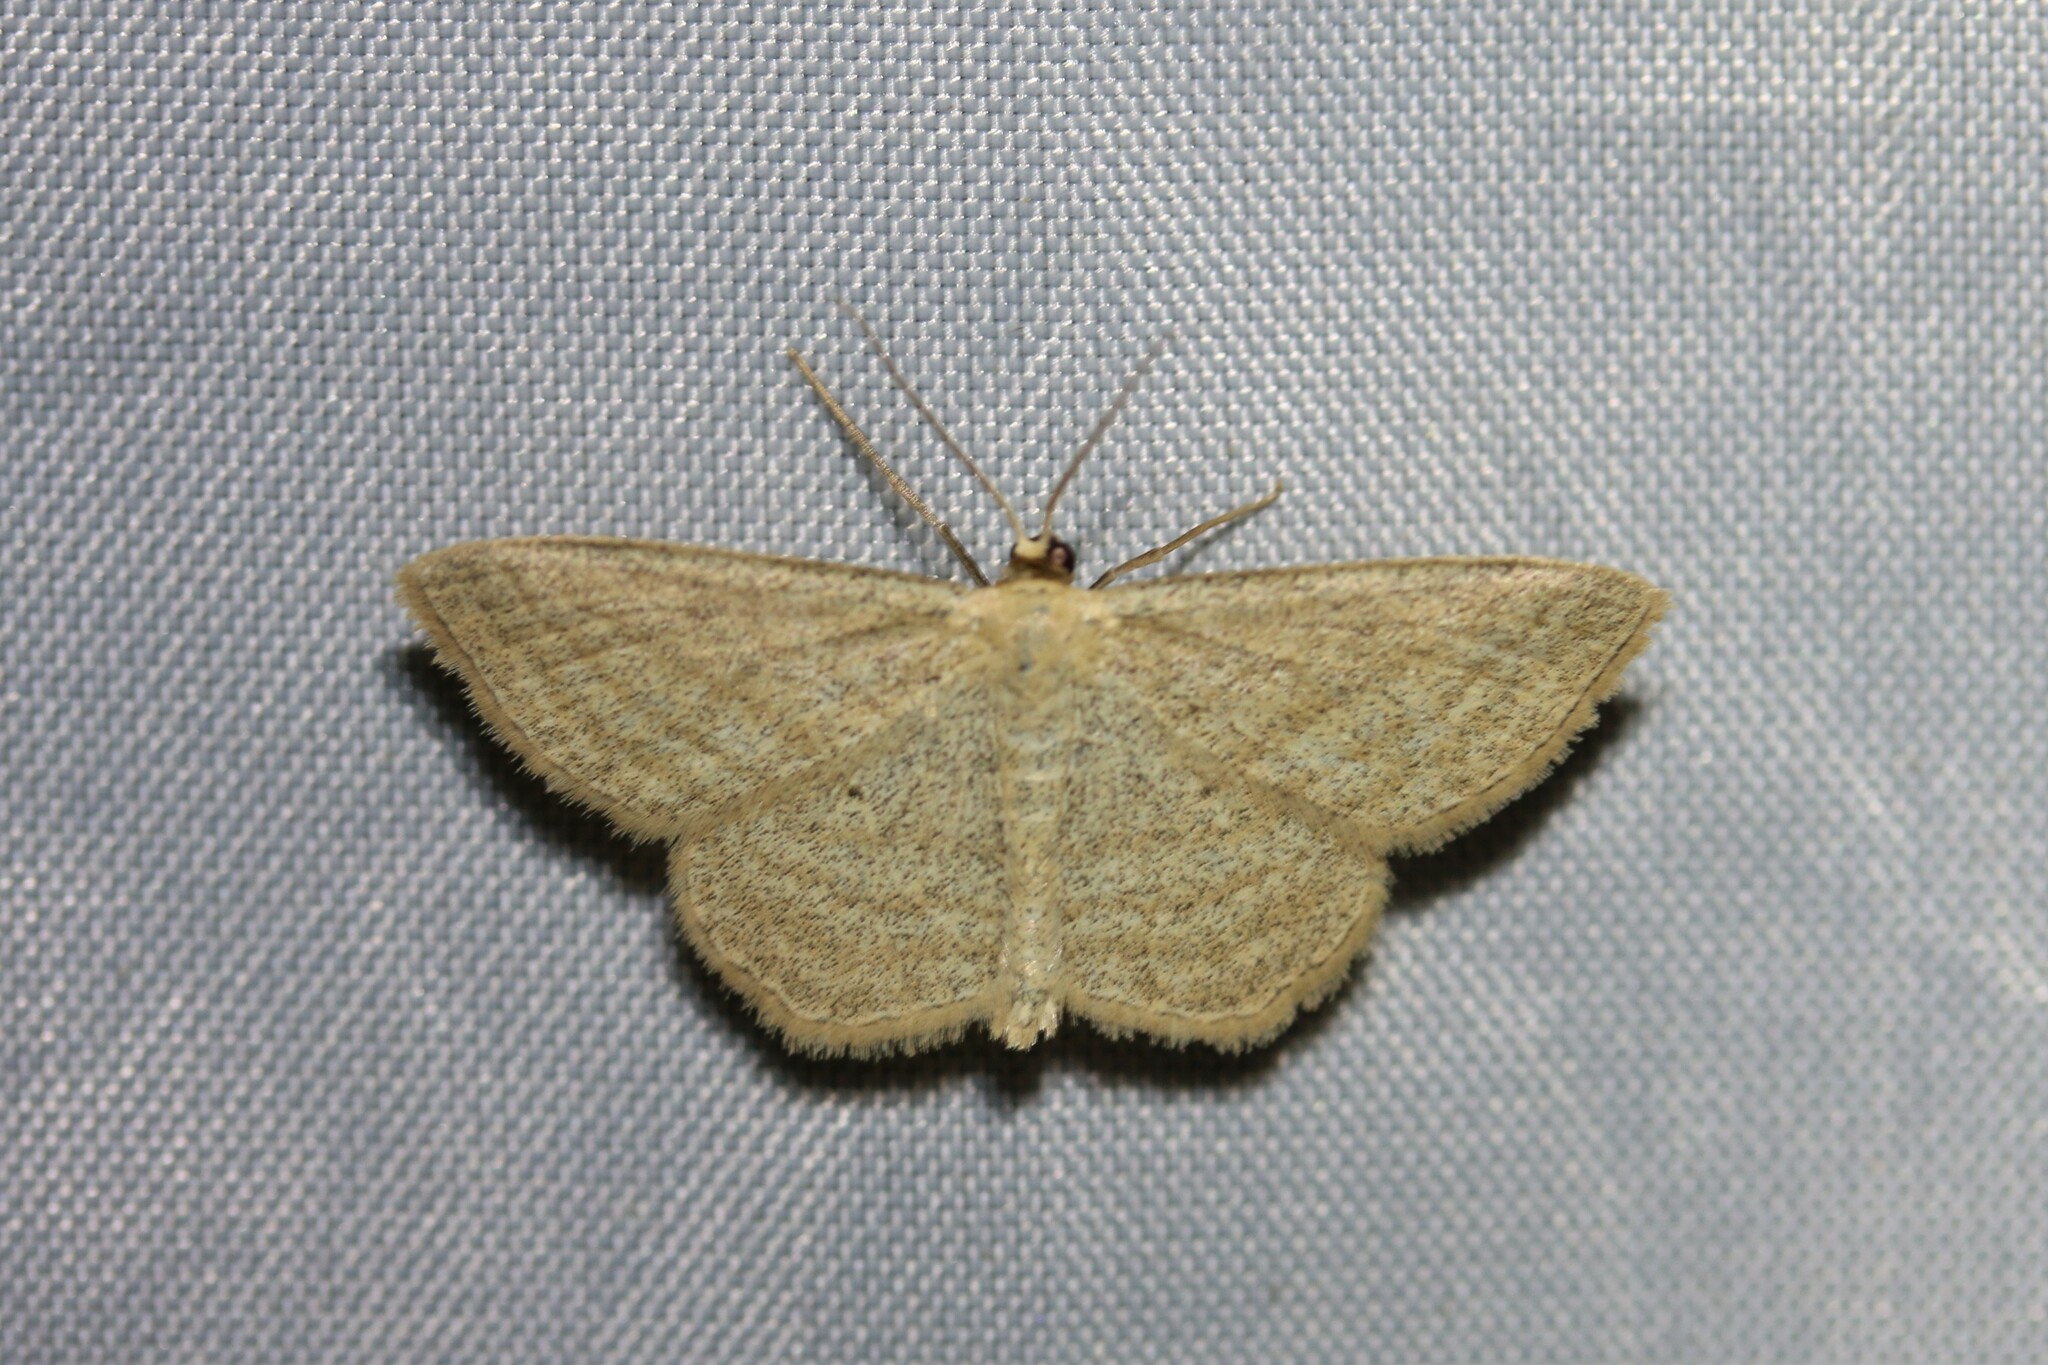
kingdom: Animalia
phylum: Arthropoda
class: Insecta
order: Lepidoptera
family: Geometridae
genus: Scopula
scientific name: Scopula virgulata
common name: Streaked wave
